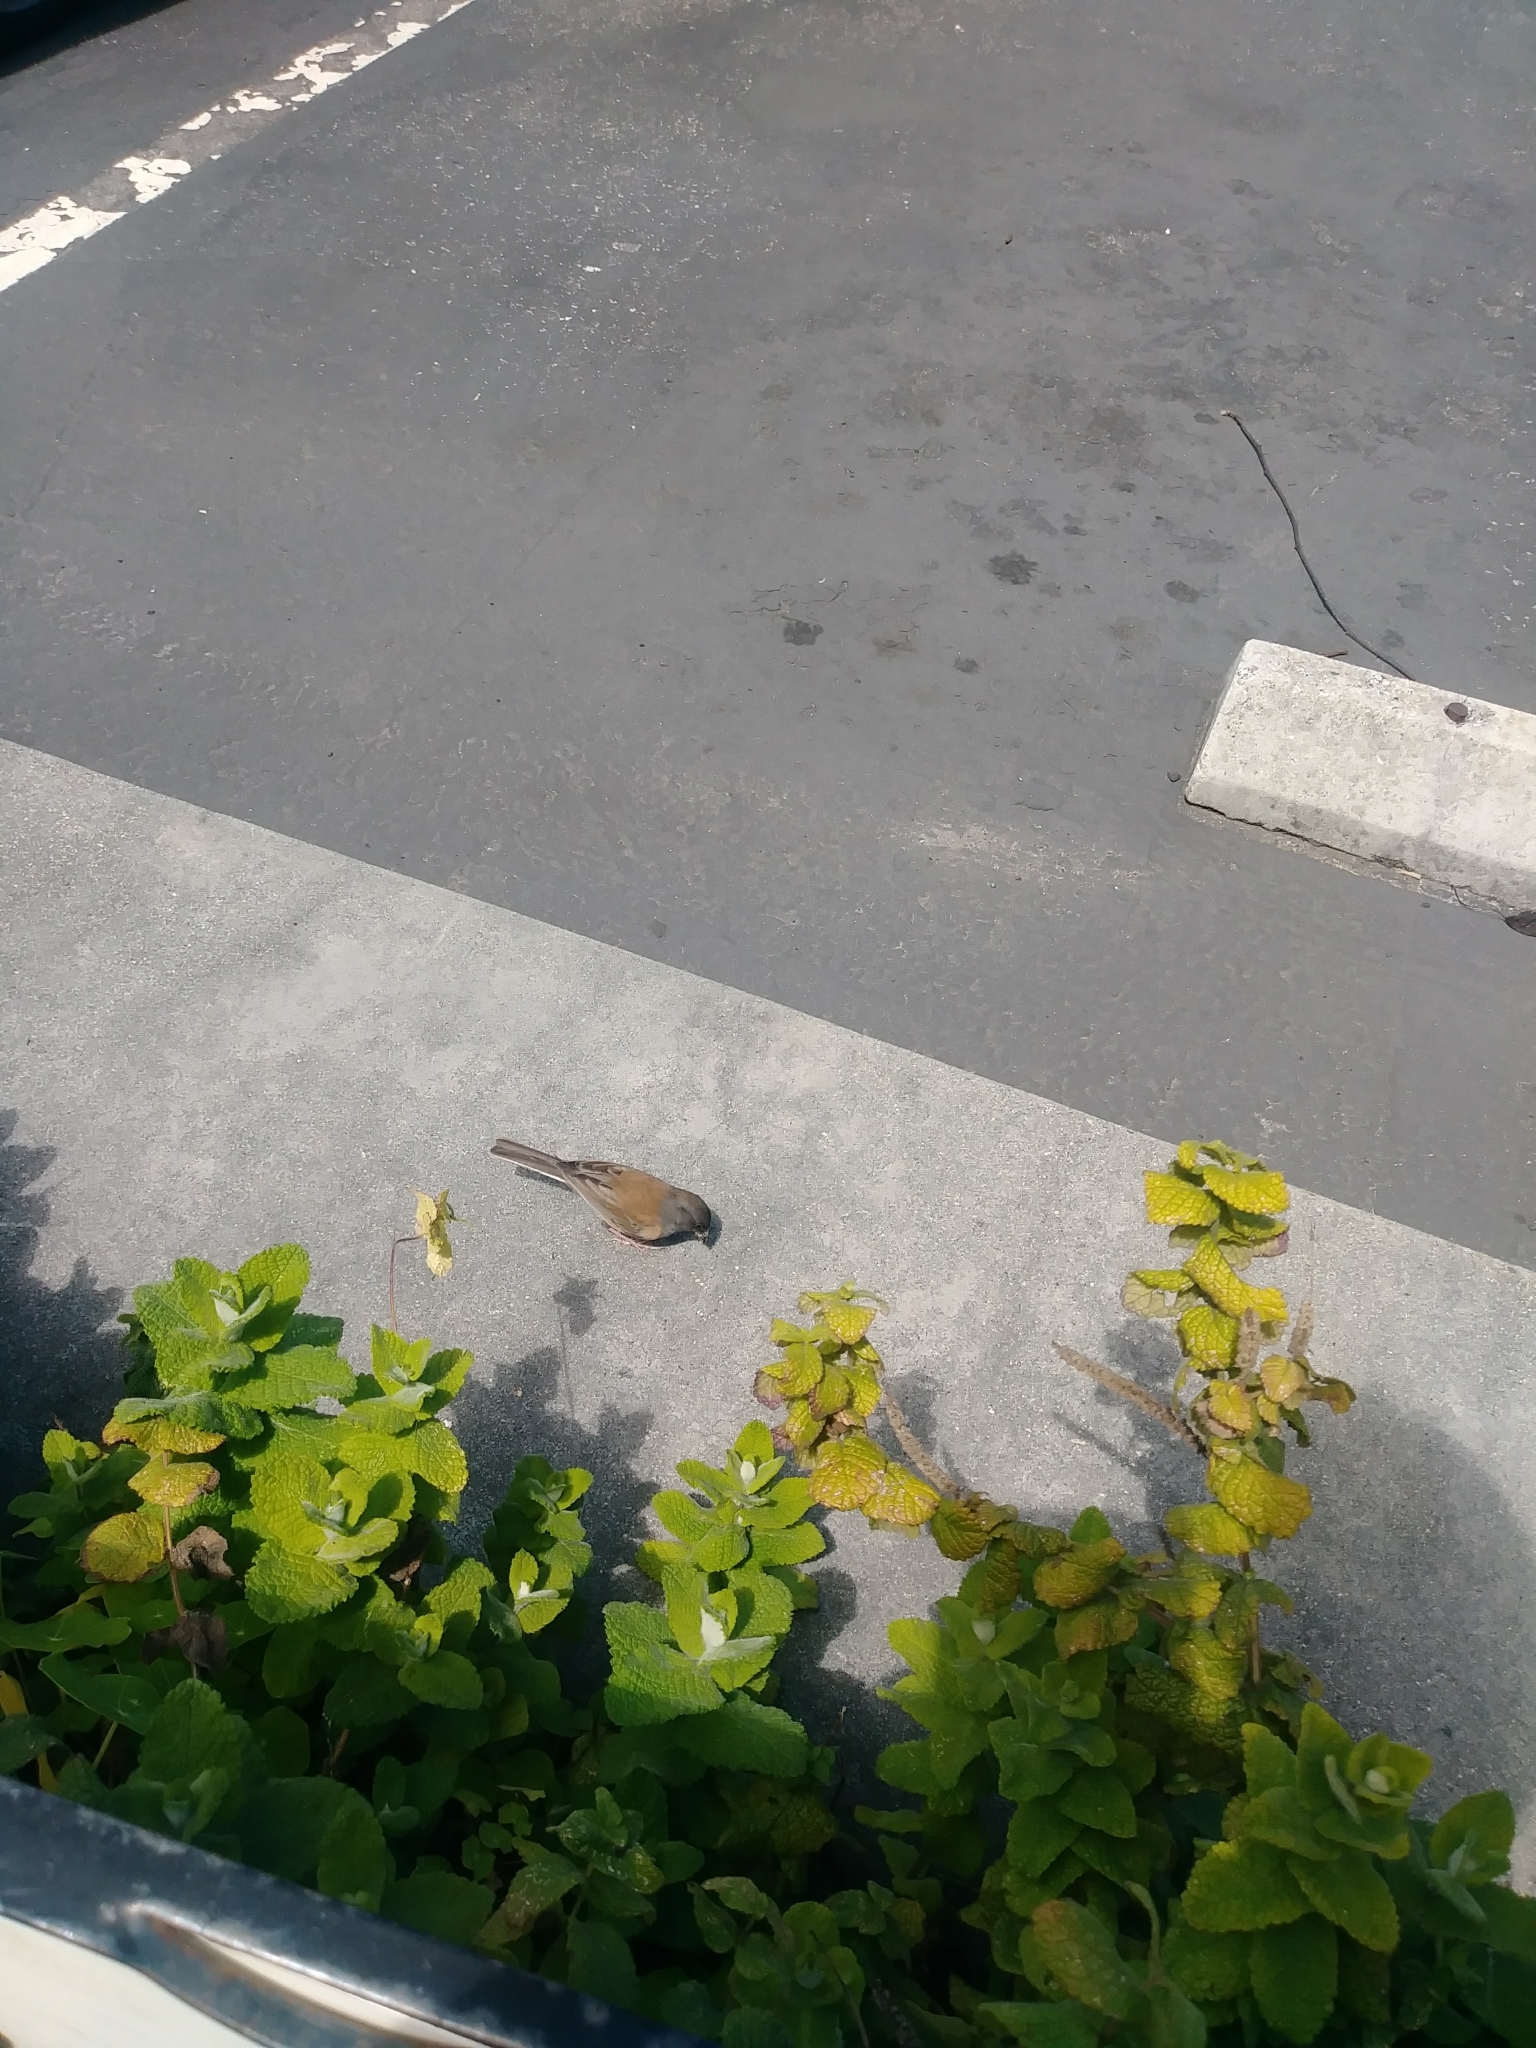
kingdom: Animalia
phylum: Chordata
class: Aves
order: Passeriformes
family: Passerellidae
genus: Junco
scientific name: Junco hyemalis
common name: Dark-eyed junco
